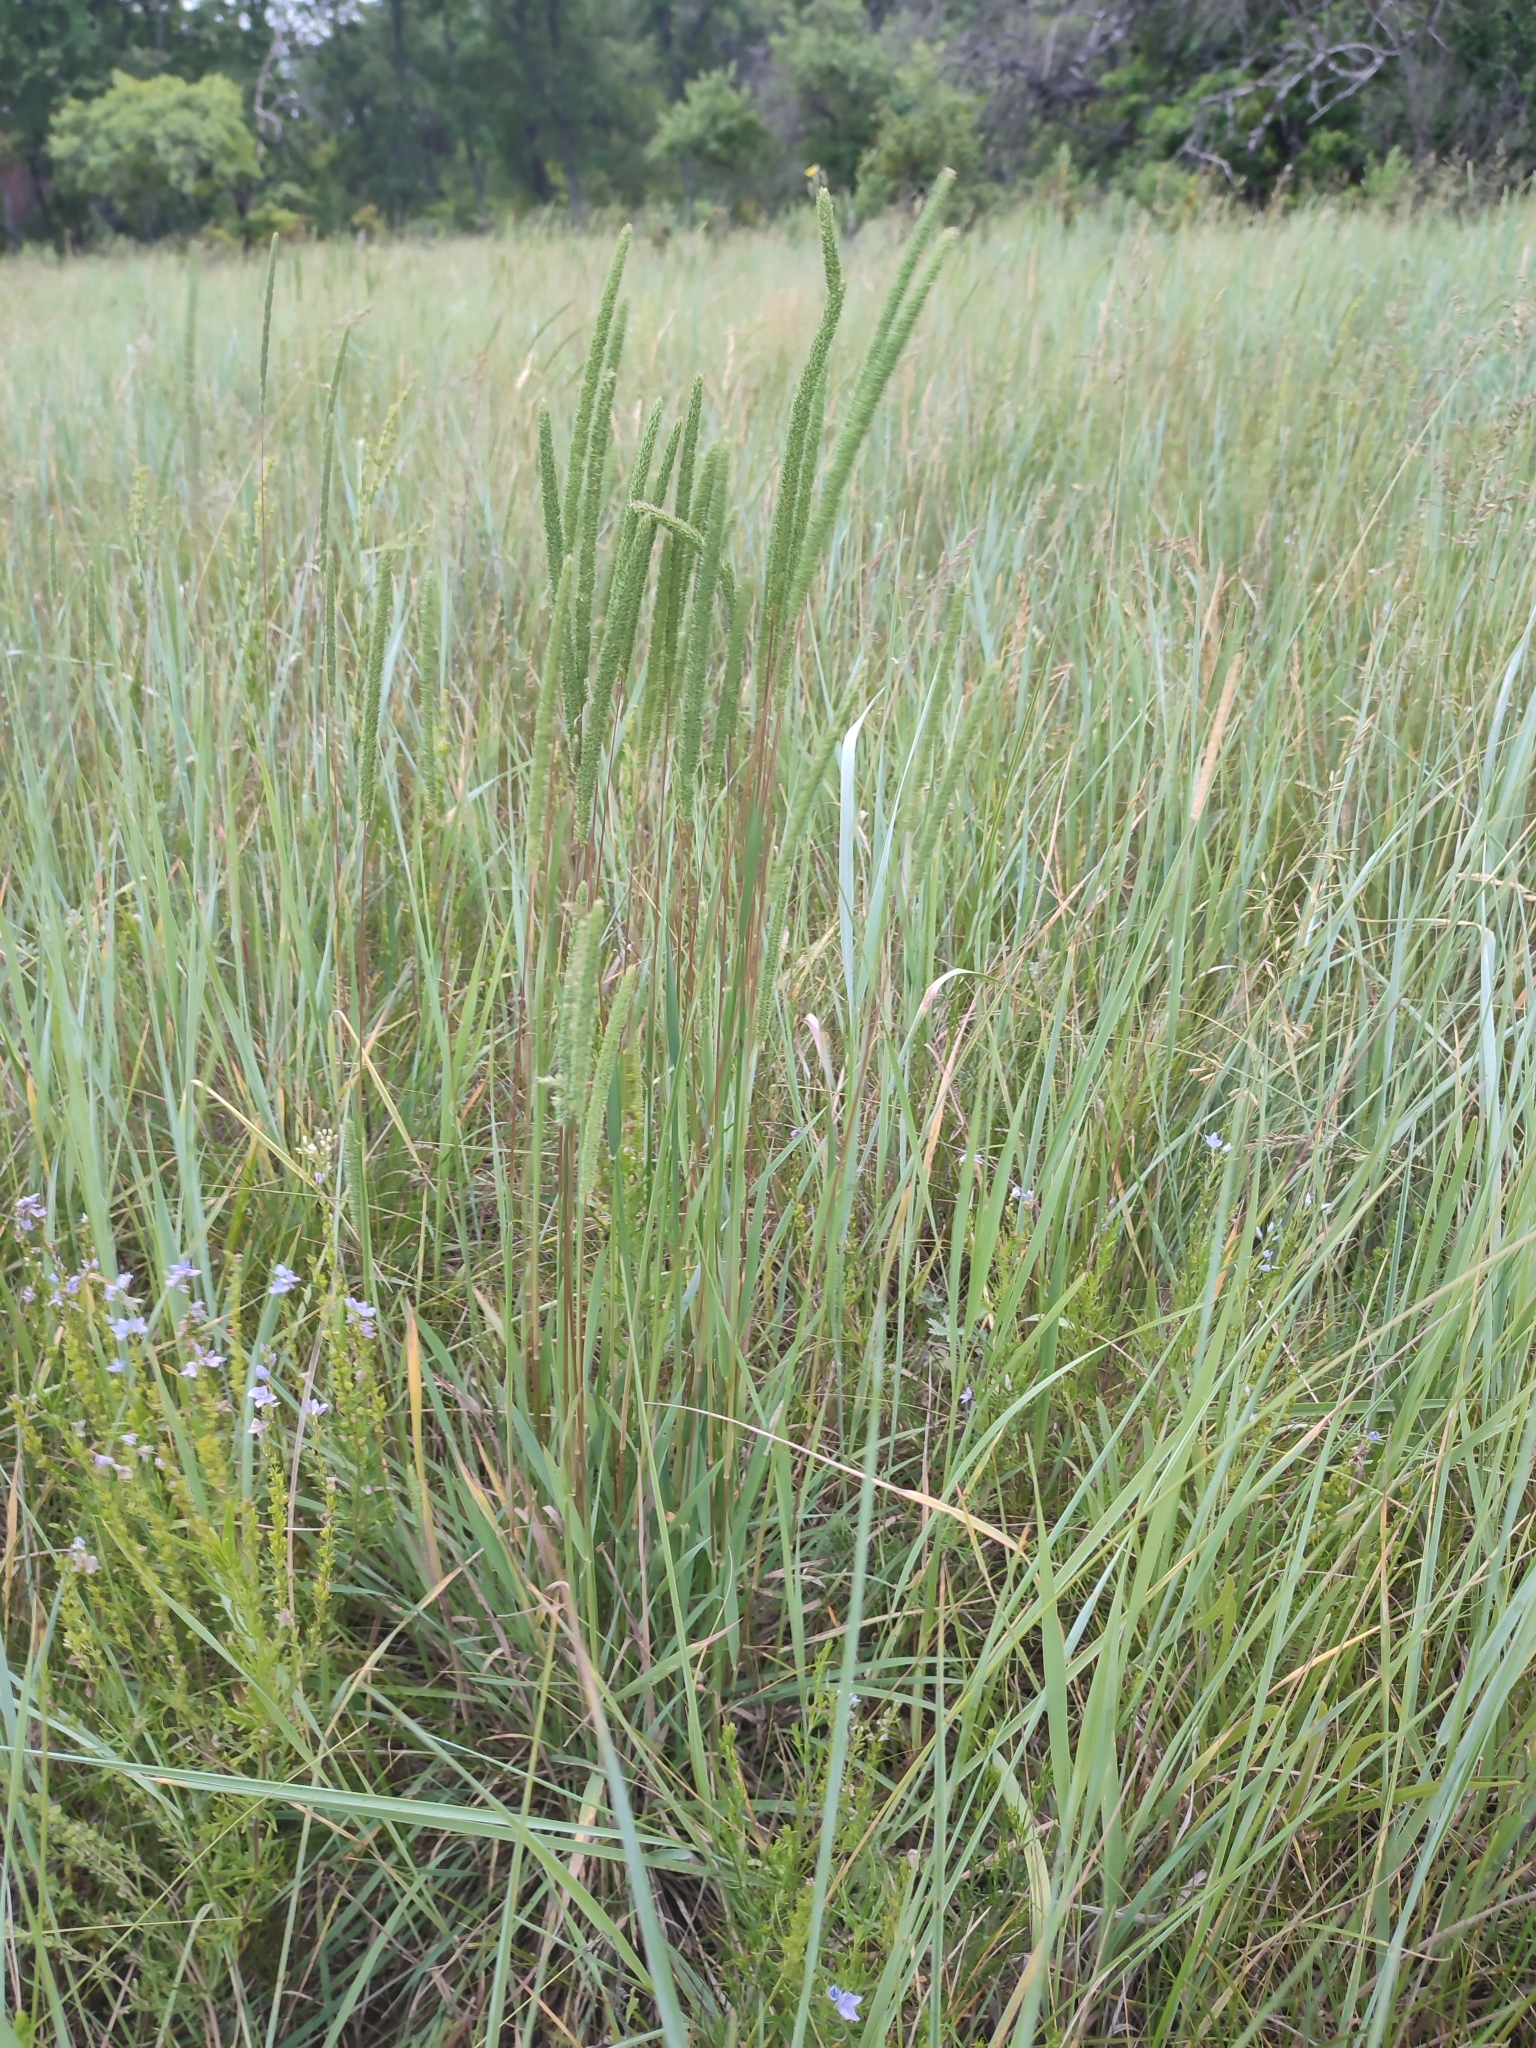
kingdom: Plantae
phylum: Tracheophyta
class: Liliopsida
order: Poales
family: Poaceae
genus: Phleum
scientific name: Phleum phleoides
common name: Purple-stem cat's-tail
